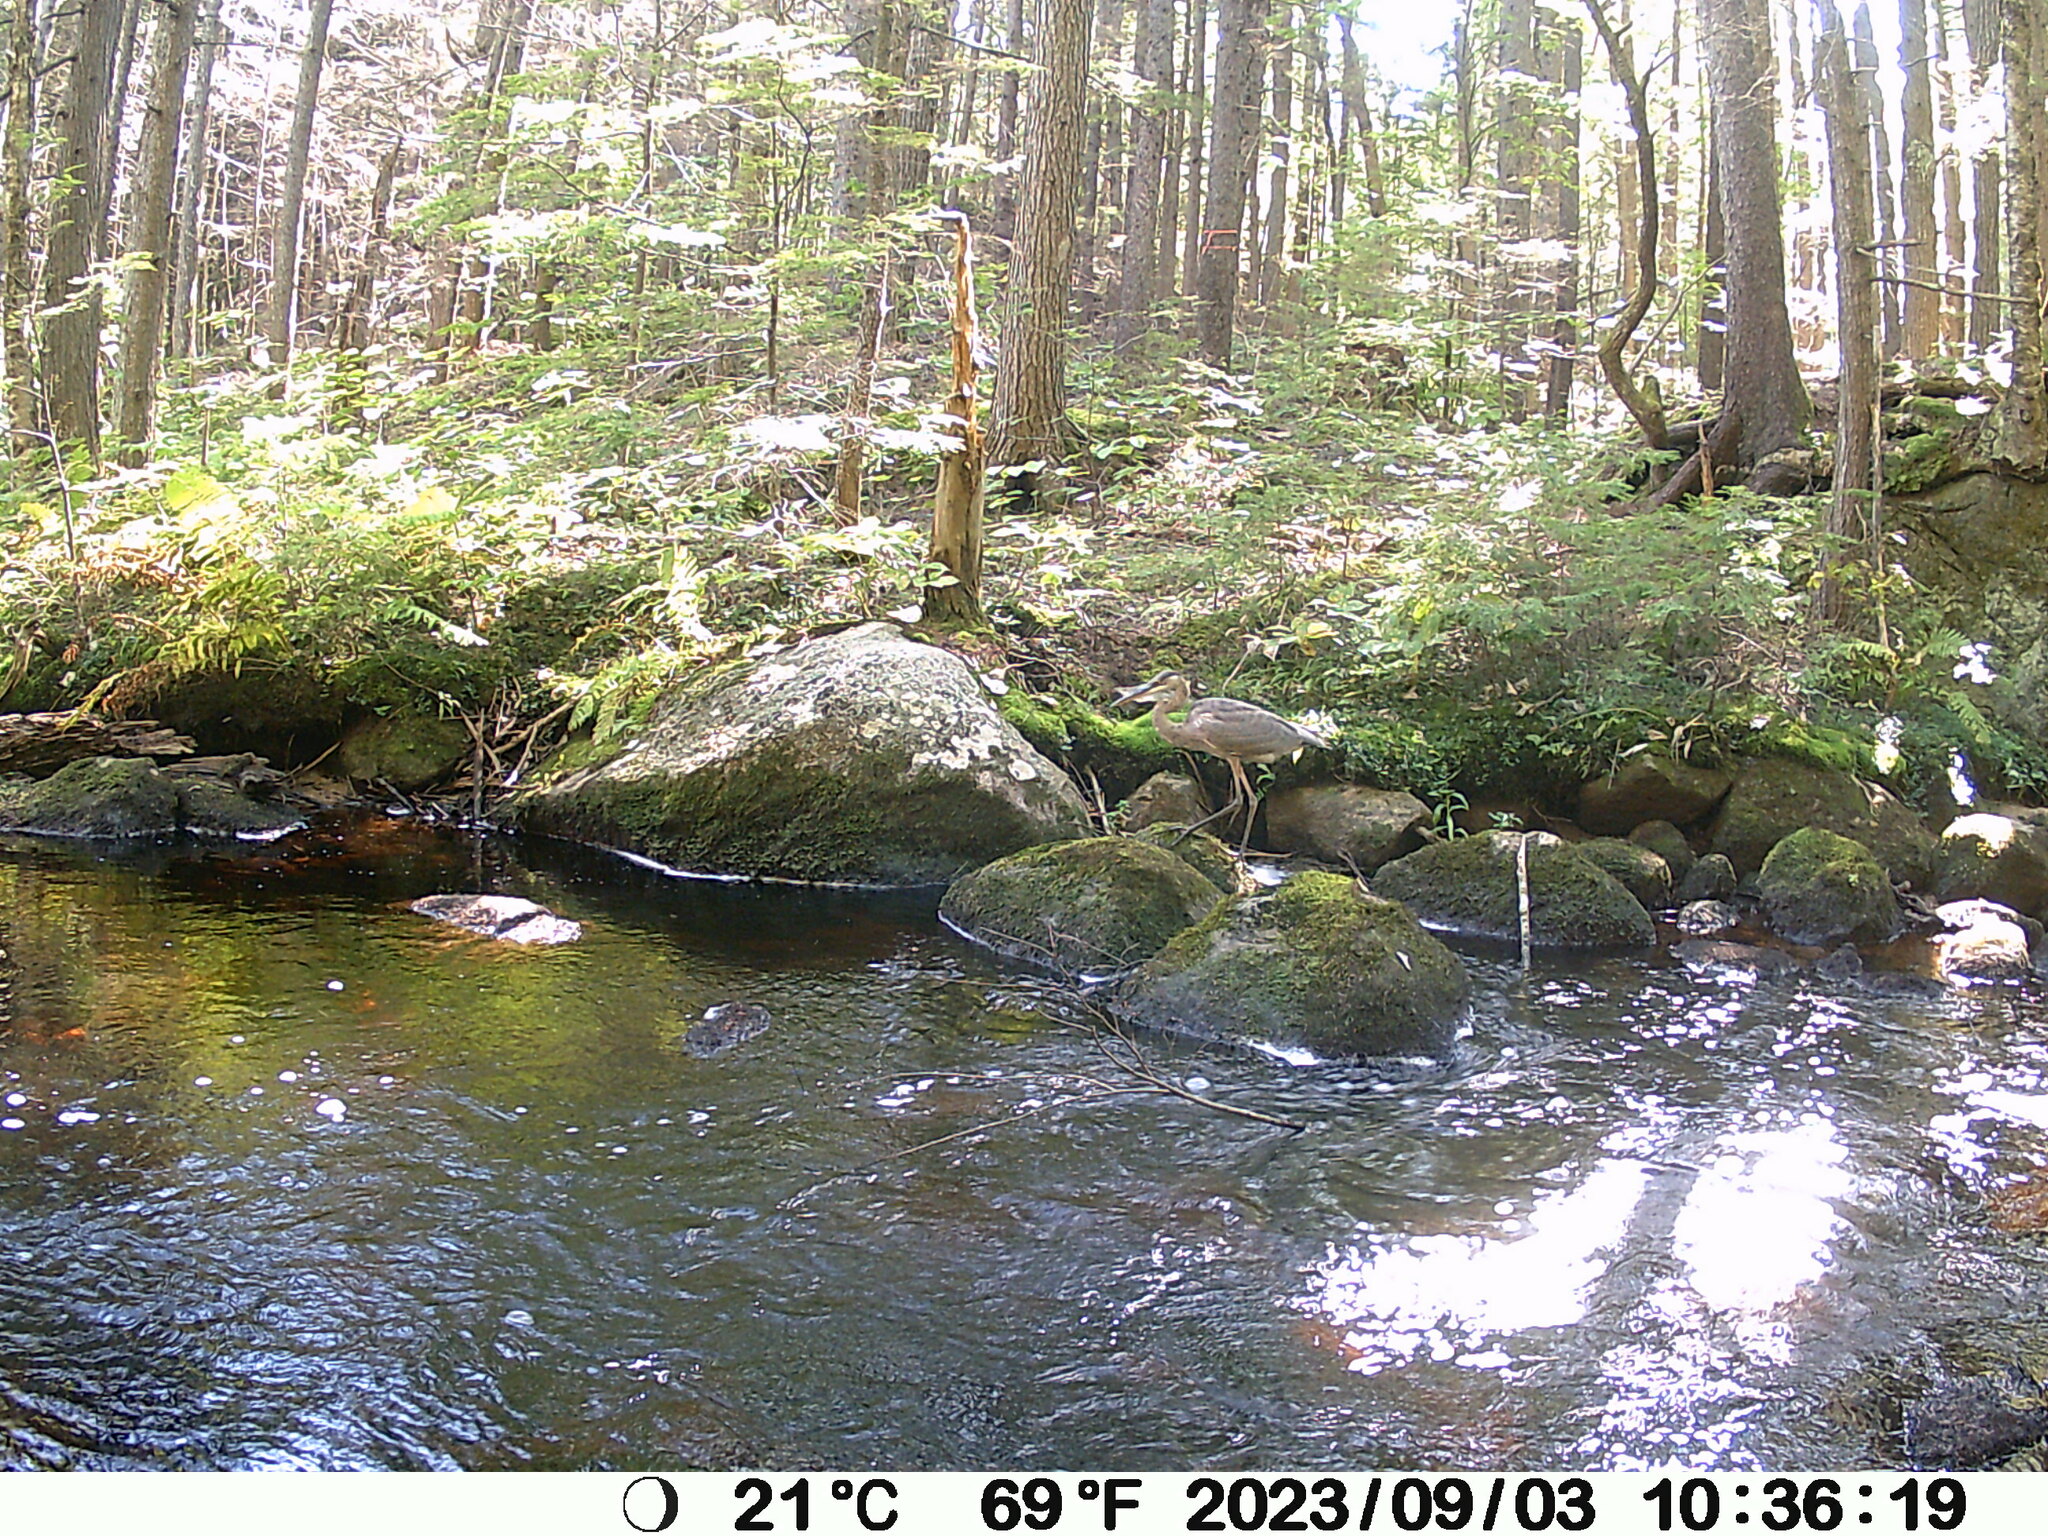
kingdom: Animalia
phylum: Chordata
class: Aves
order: Pelecaniformes
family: Ardeidae
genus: Ardea
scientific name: Ardea herodias
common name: Great blue heron
